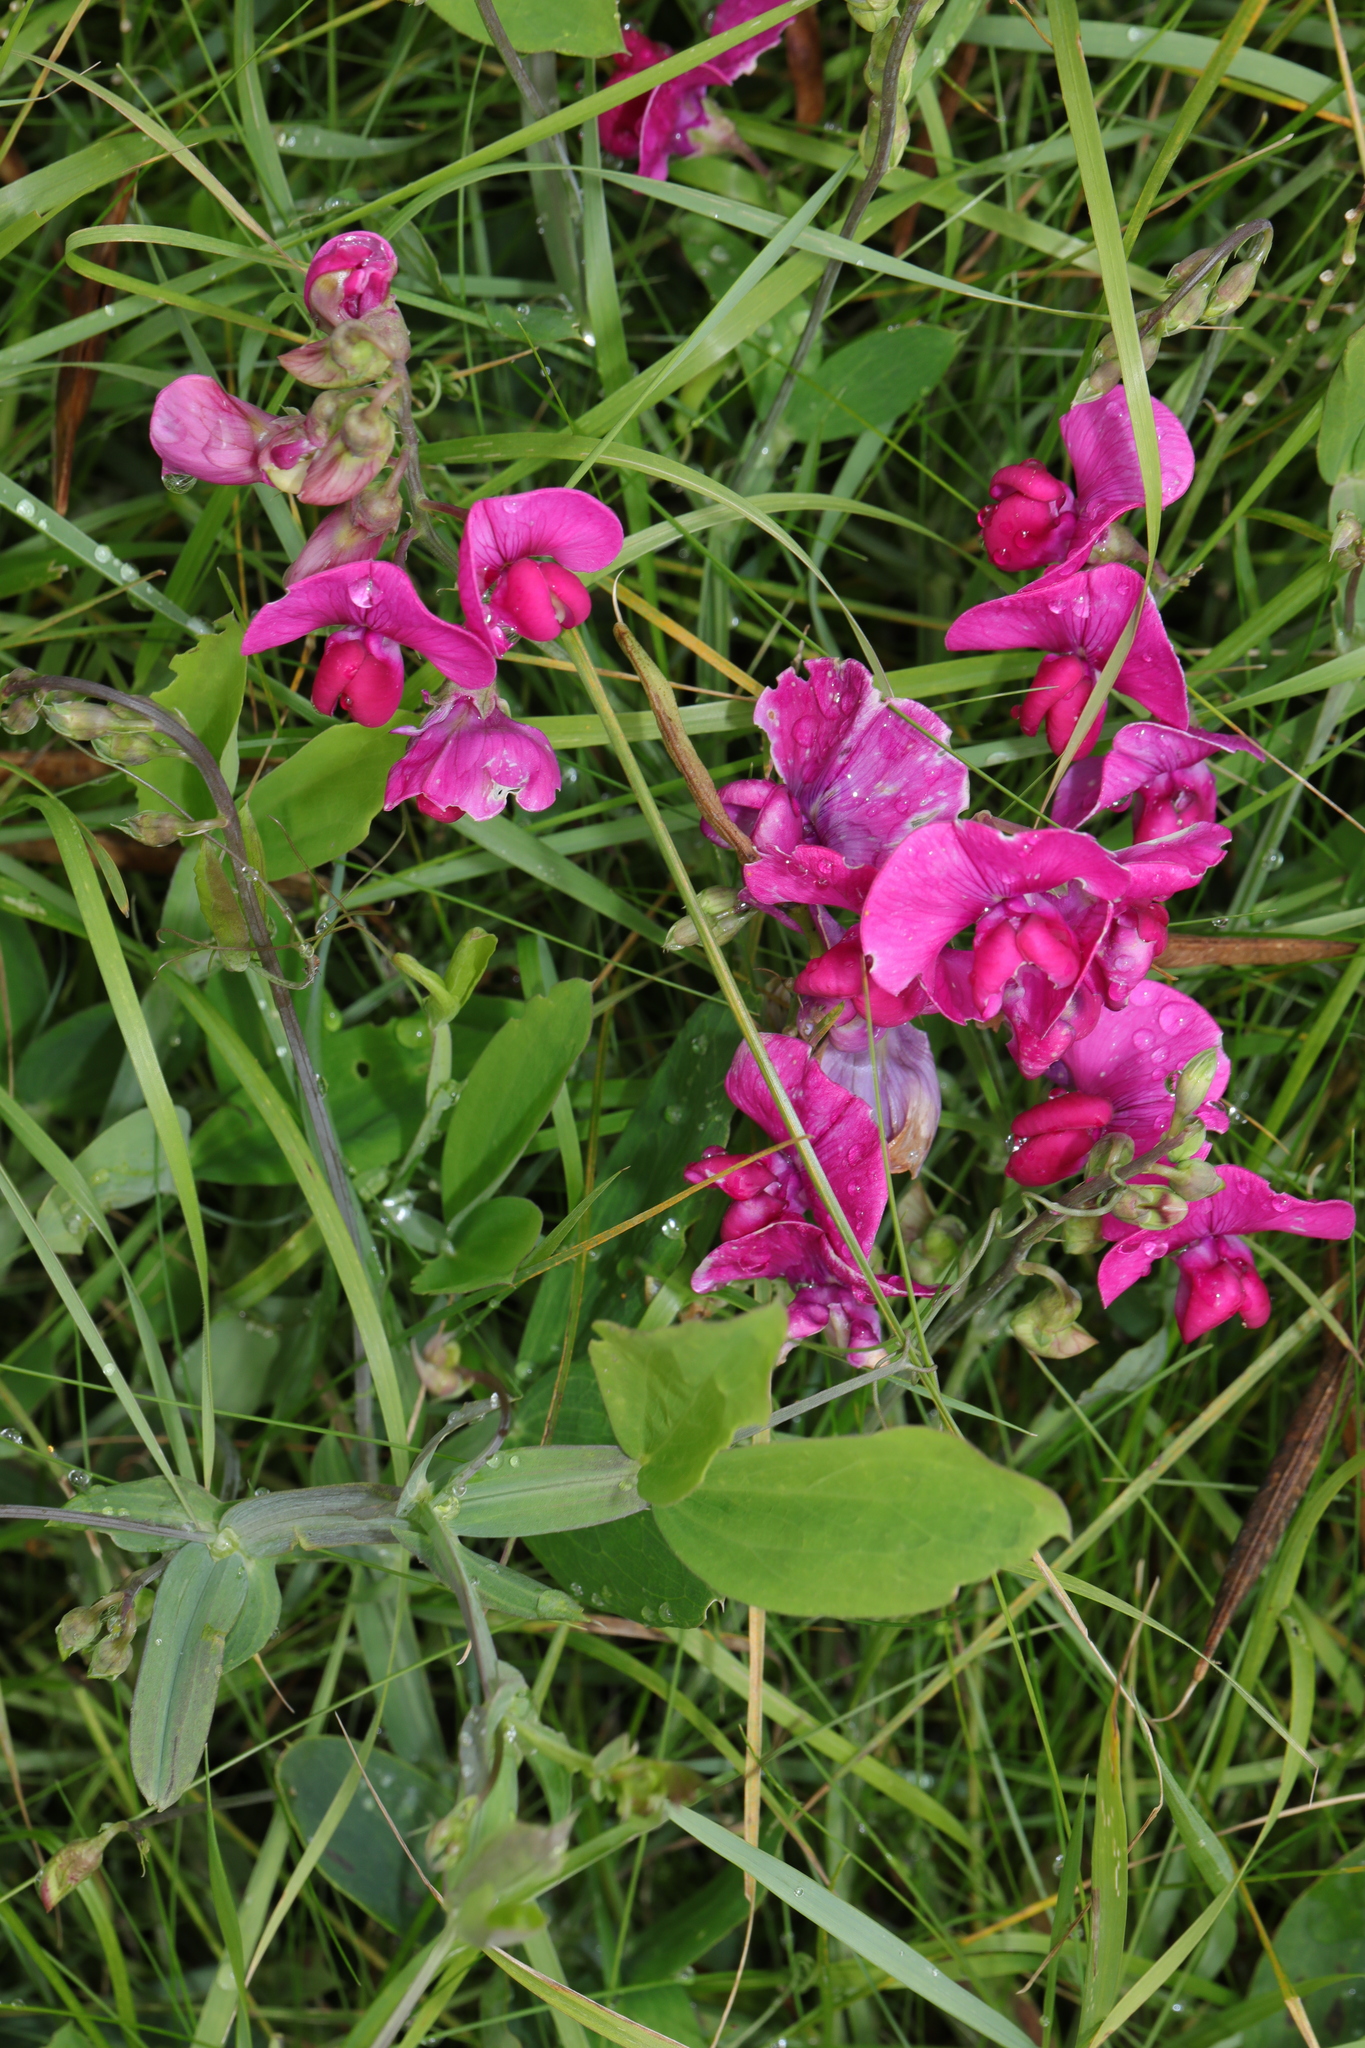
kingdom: Plantae
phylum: Tracheophyta
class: Magnoliopsida
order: Fabales
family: Fabaceae
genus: Lathyrus
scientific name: Lathyrus latifolius
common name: Perennial pea
